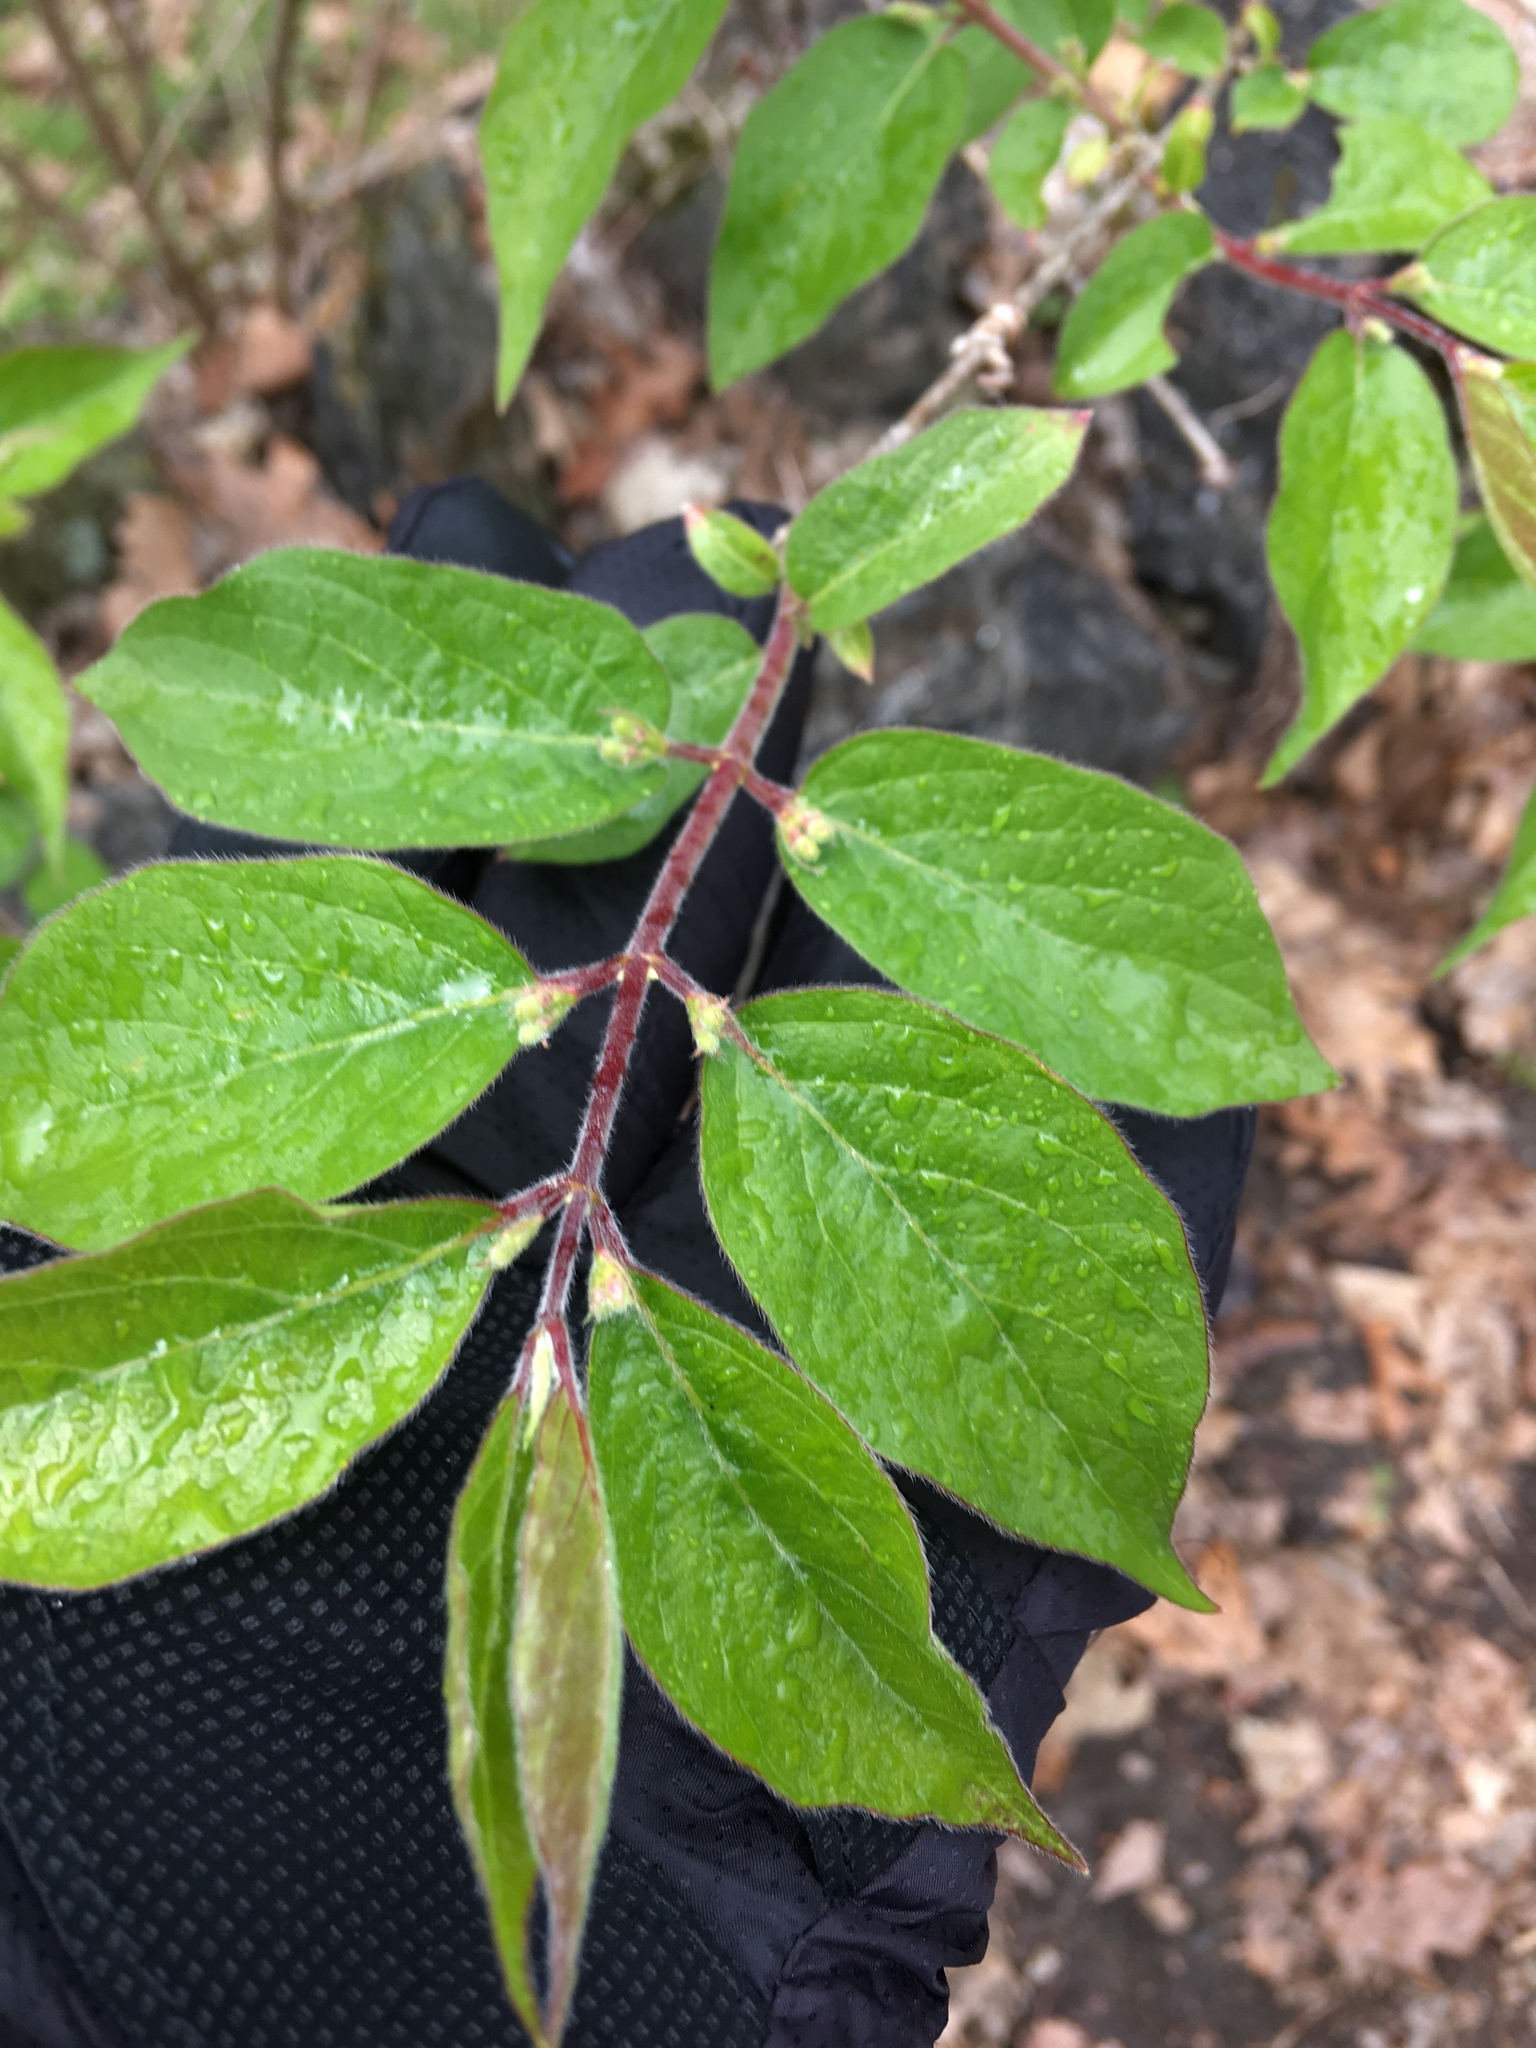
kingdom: Plantae
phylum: Tracheophyta
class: Magnoliopsida
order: Dipsacales
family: Caprifoliaceae
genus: Lonicera
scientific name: Lonicera maackii
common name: Amur honeysuckle
